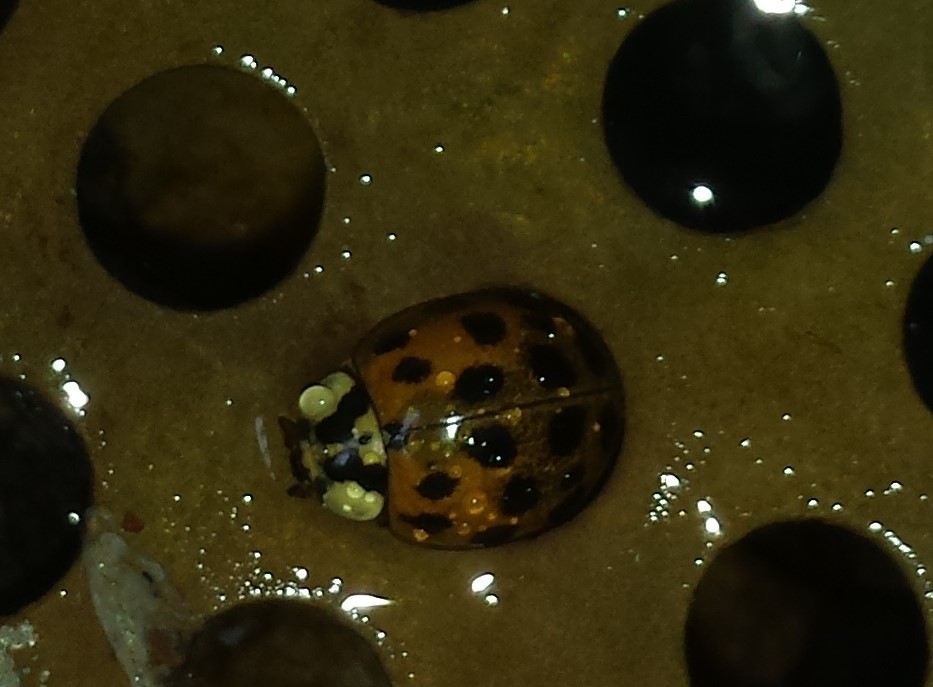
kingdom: Animalia
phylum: Arthropoda
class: Insecta
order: Coleoptera
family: Coccinellidae
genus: Harmonia
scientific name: Harmonia axyridis
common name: Harlequin ladybird
